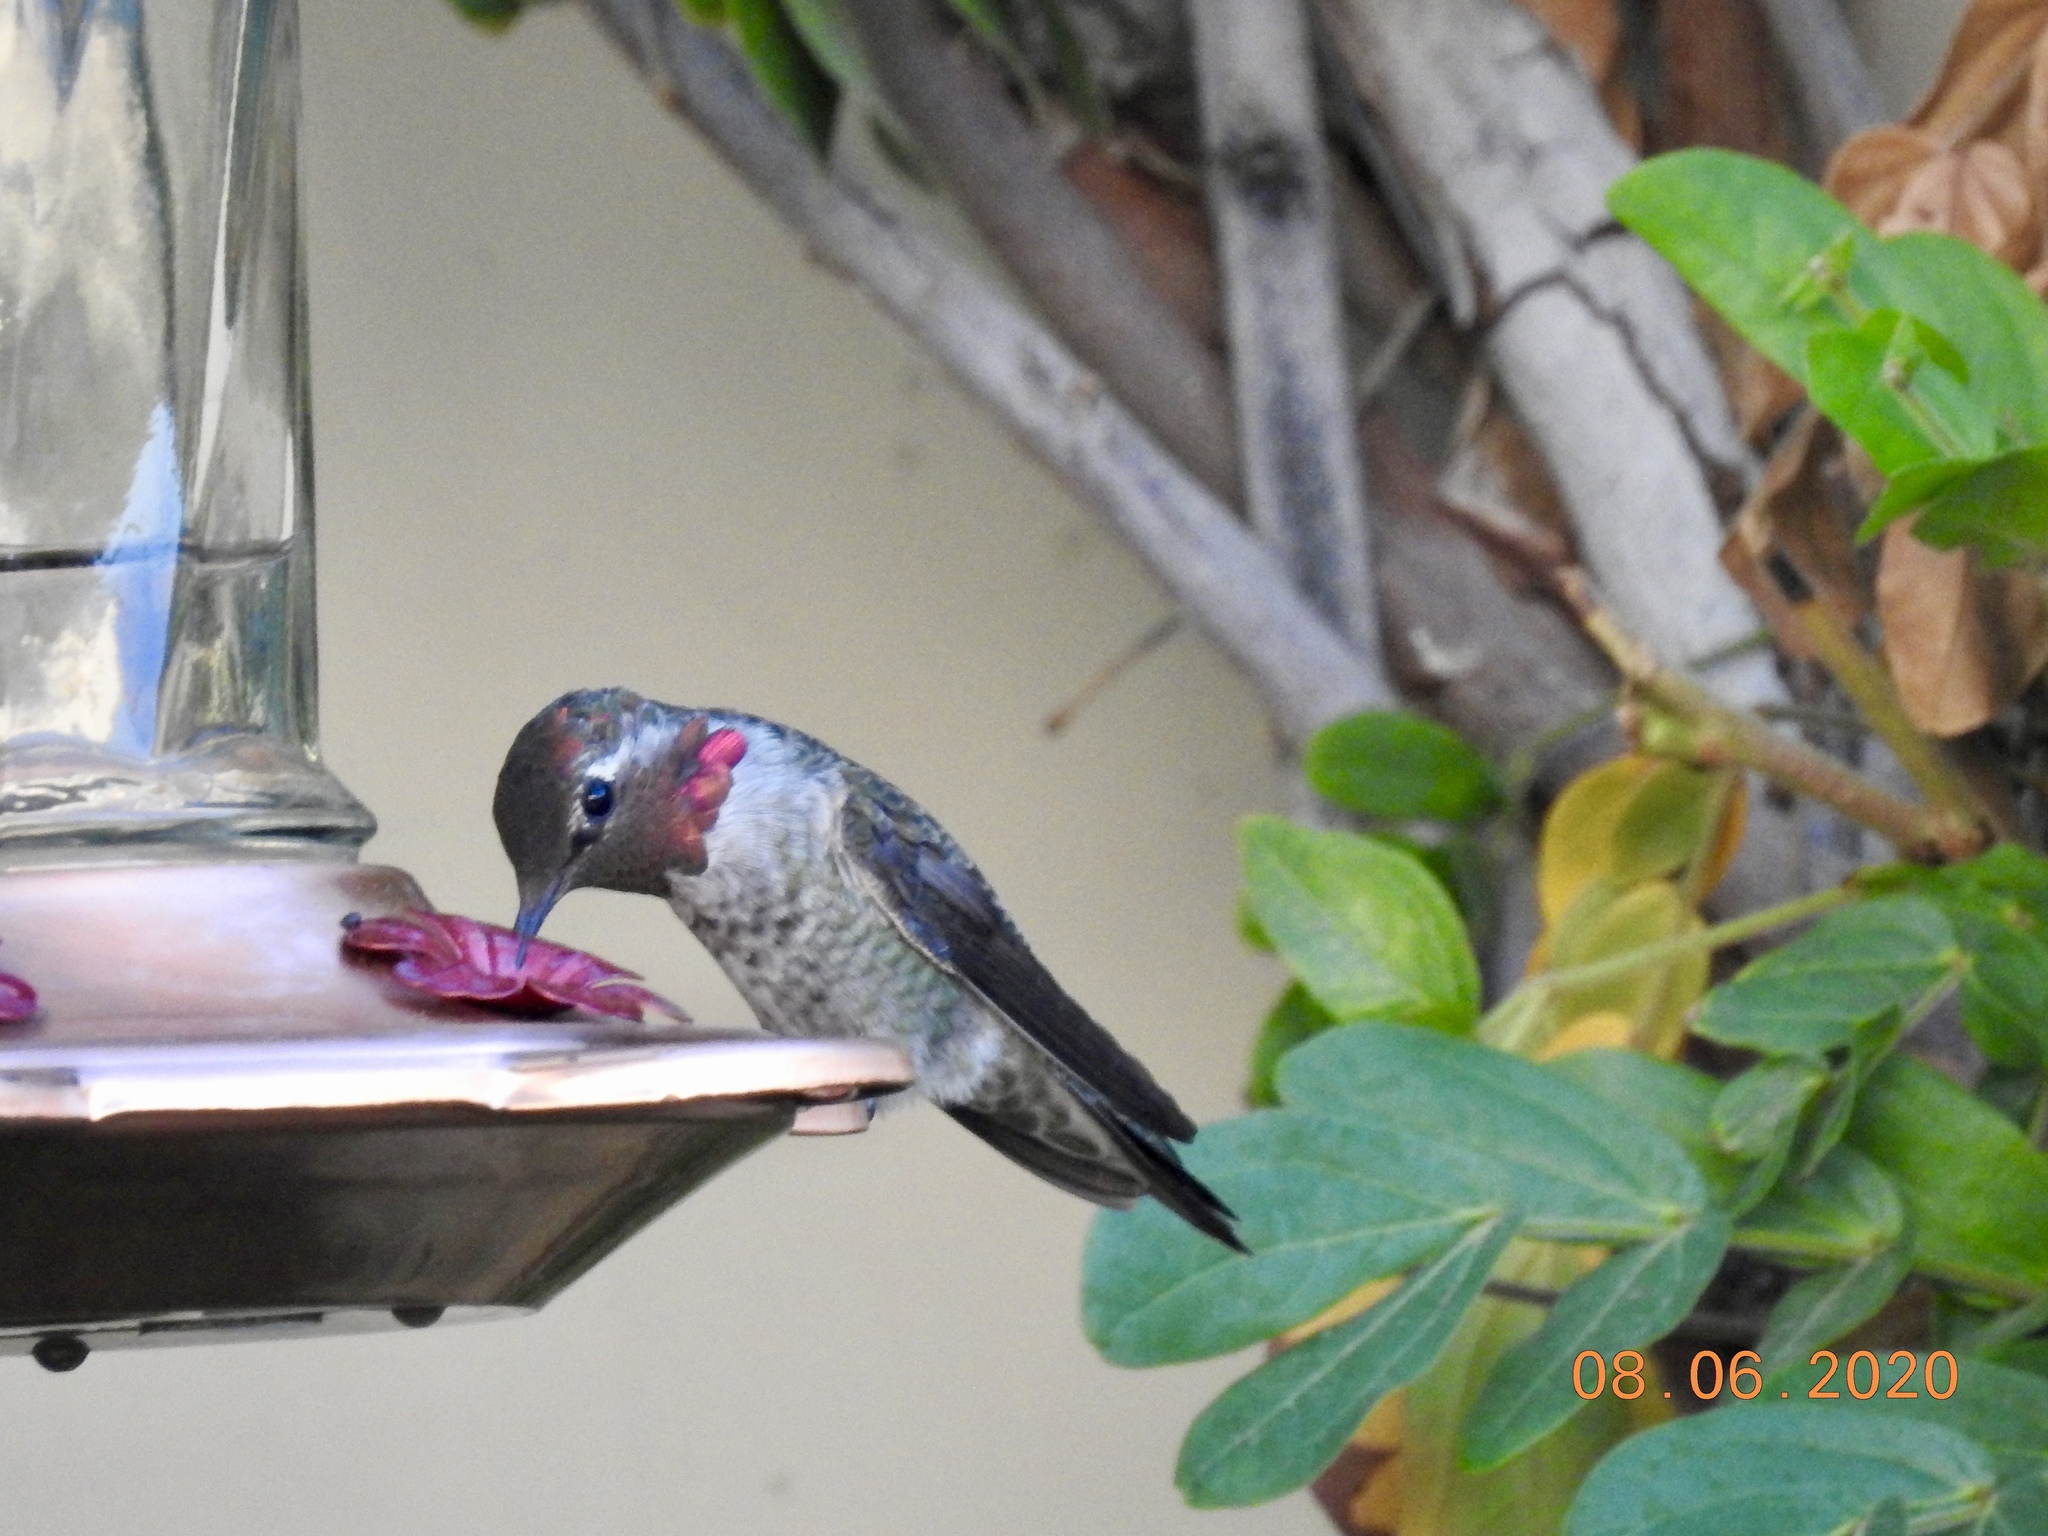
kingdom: Animalia
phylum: Chordata
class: Aves
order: Apodiformes
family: Trochilidae
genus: Calypte
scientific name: Calypte anna
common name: Anna's hummingbird
